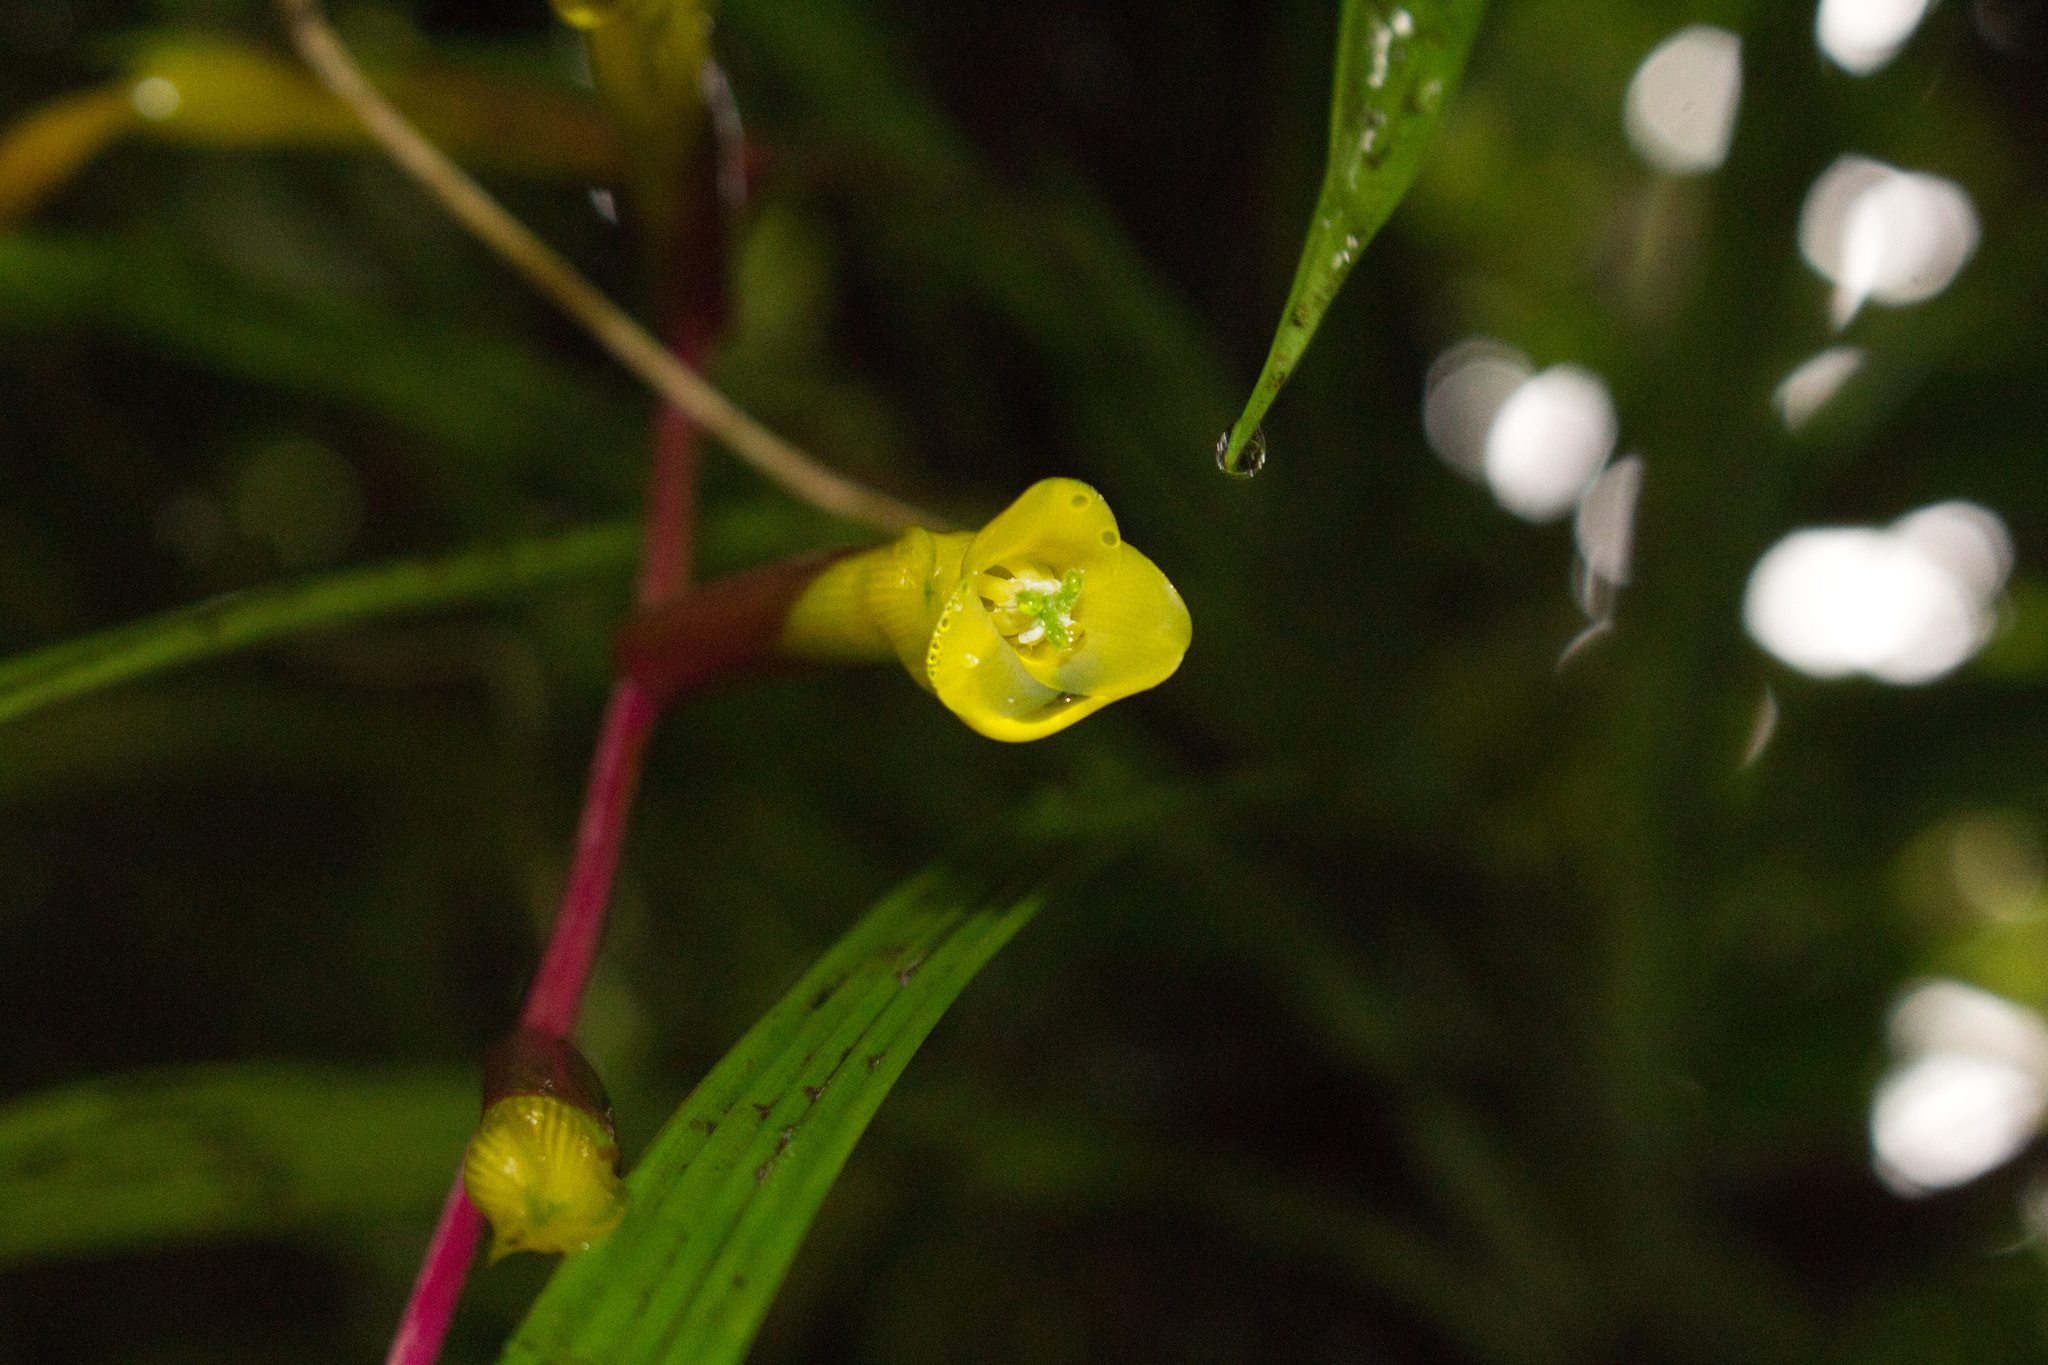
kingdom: Plantae
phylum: Tracheophyta
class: Liliopsida
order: Poales
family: Bromeliaceae
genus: Guzmania
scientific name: Guzmania scandens
